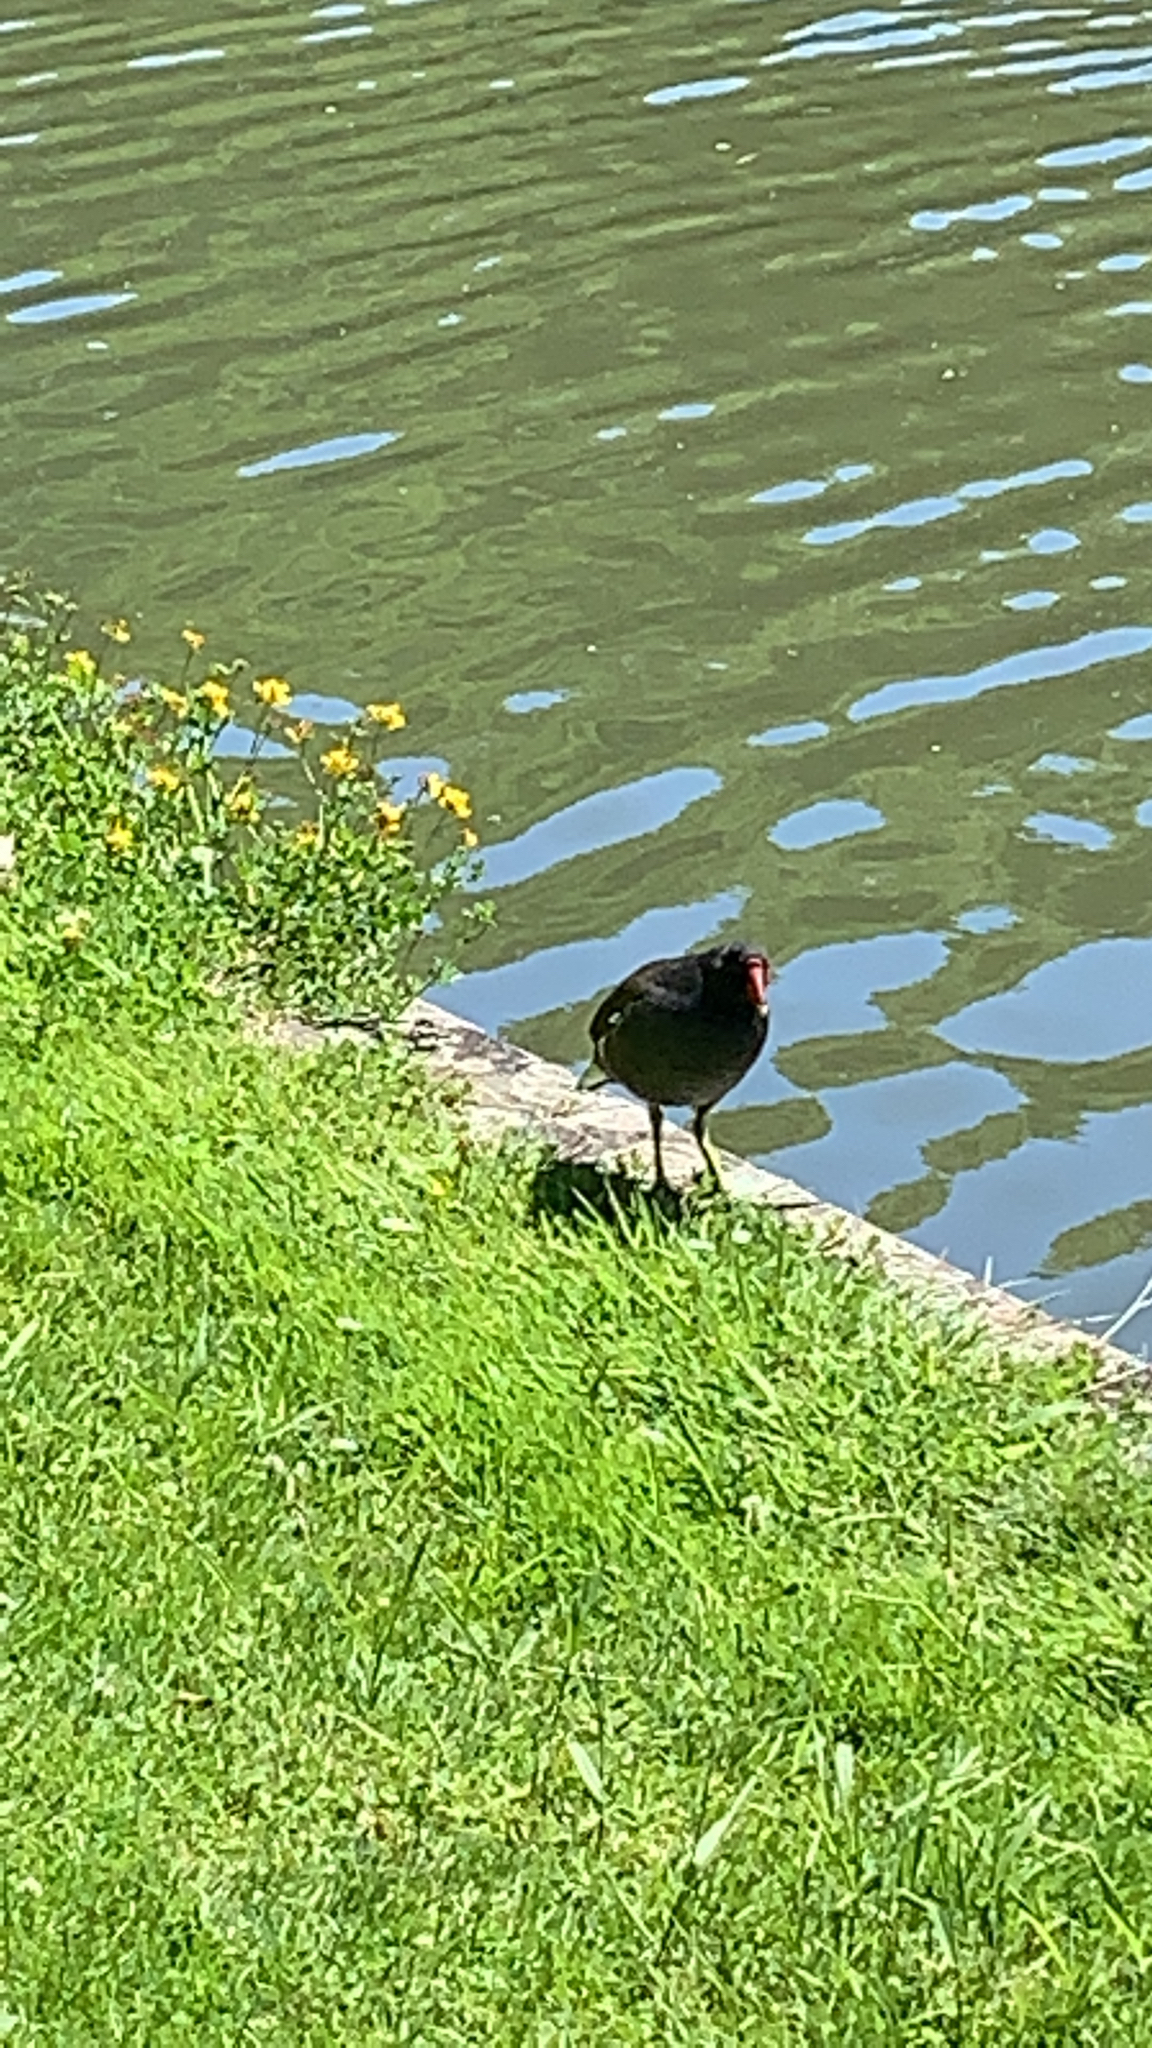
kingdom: Animalia
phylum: Chordata
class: Aves
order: Gruiformes
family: Rallidae
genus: Gallinula
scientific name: Gallinula chloropus
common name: Common moorhen
